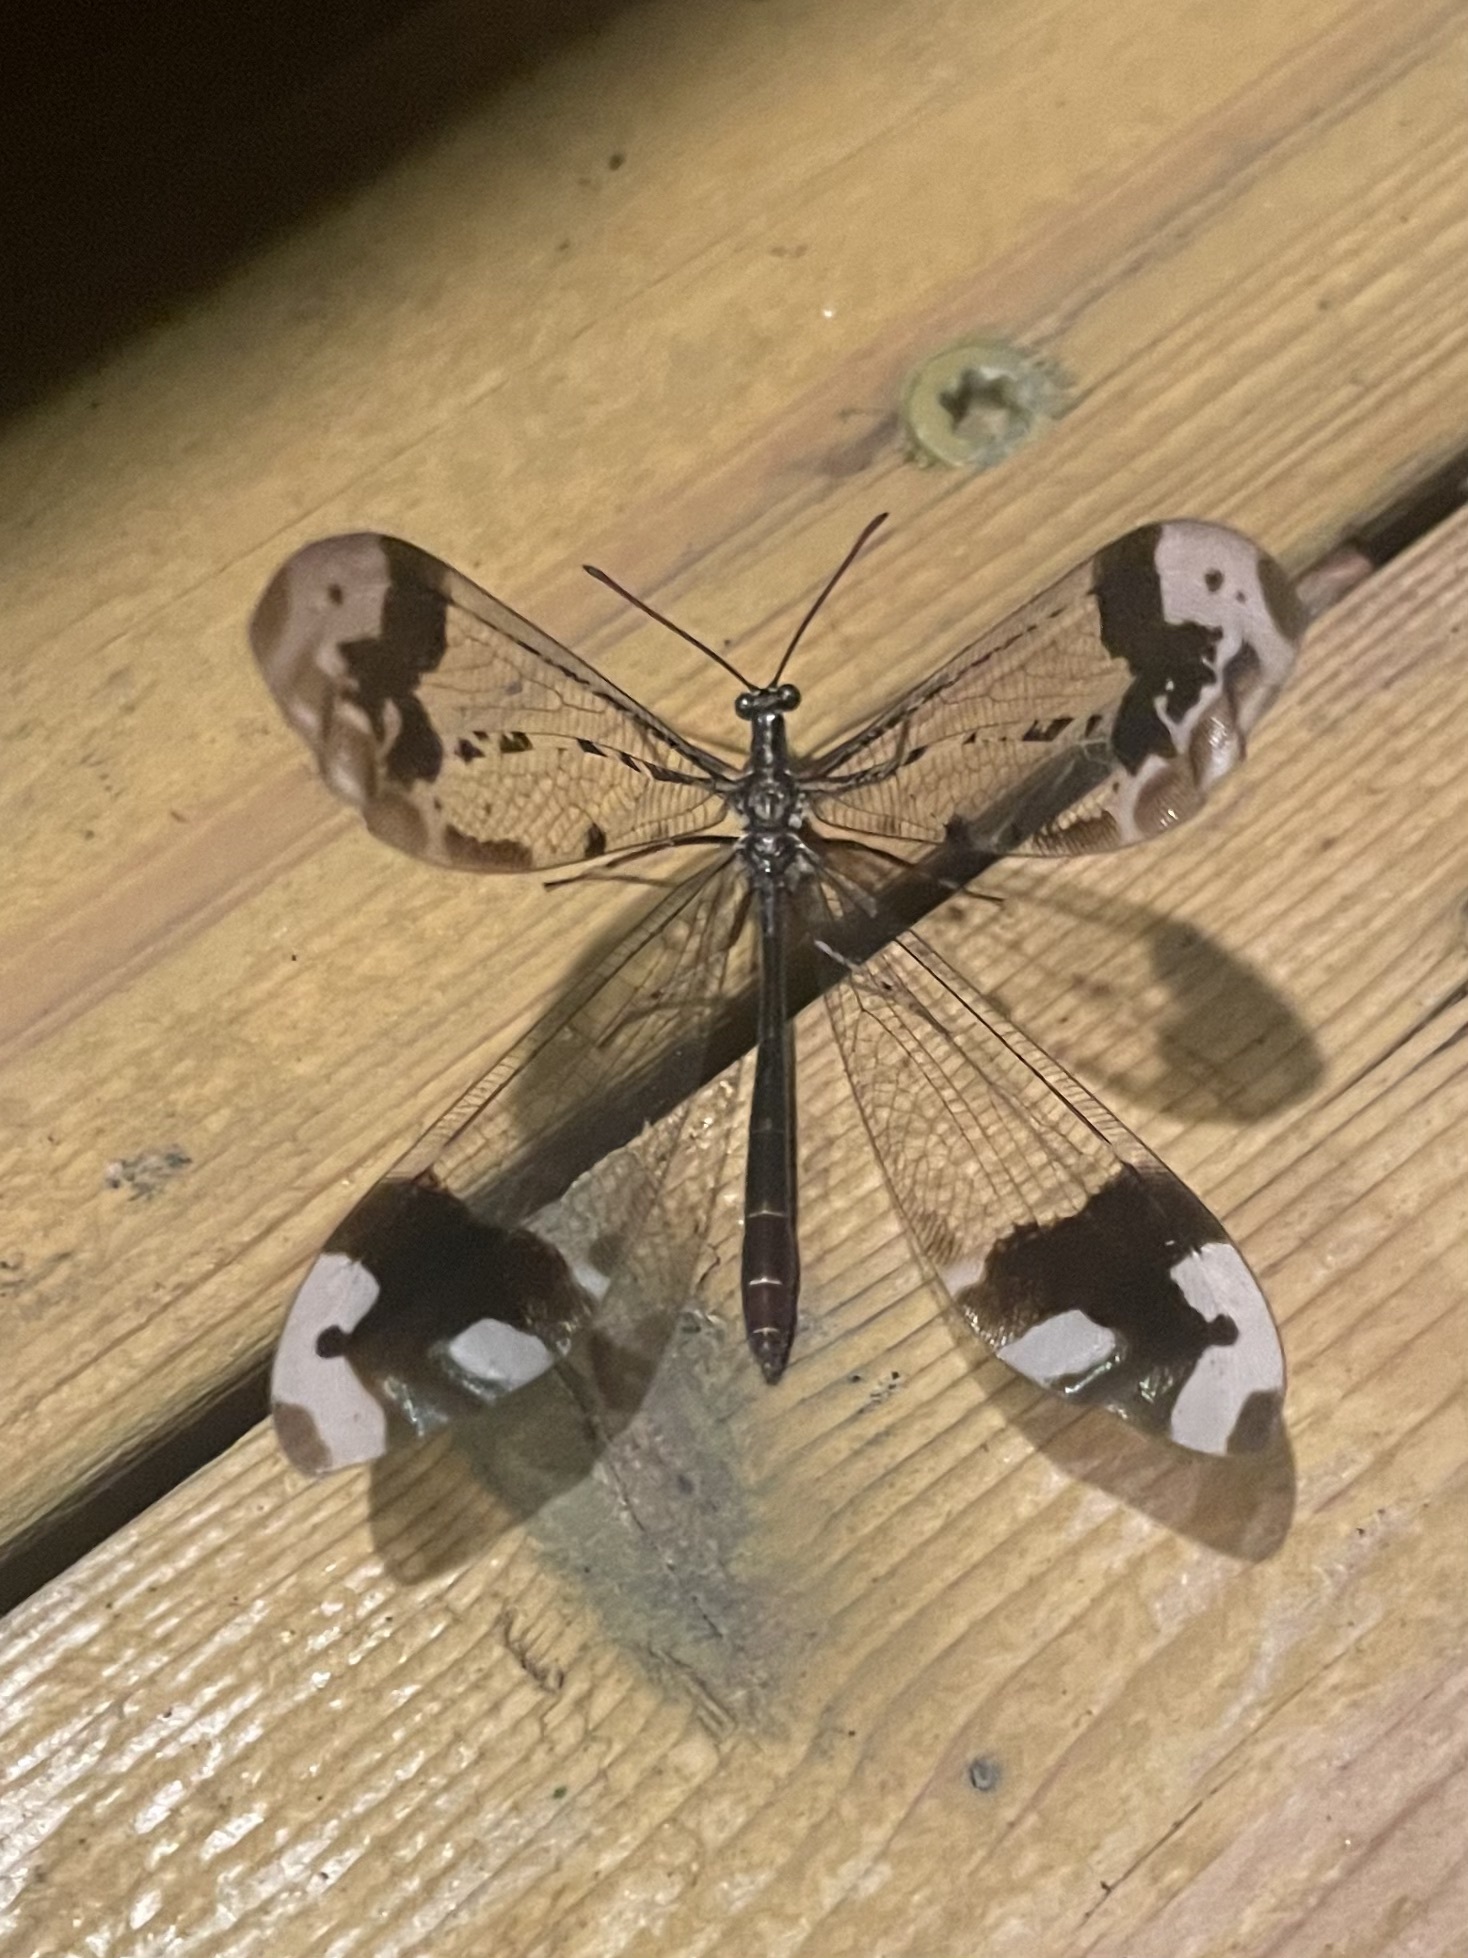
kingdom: Animalia
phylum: Arthropoda
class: Insecta
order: Neuroptera
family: Myrmeleontidae
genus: Glenurus
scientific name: Glenurus gratus
